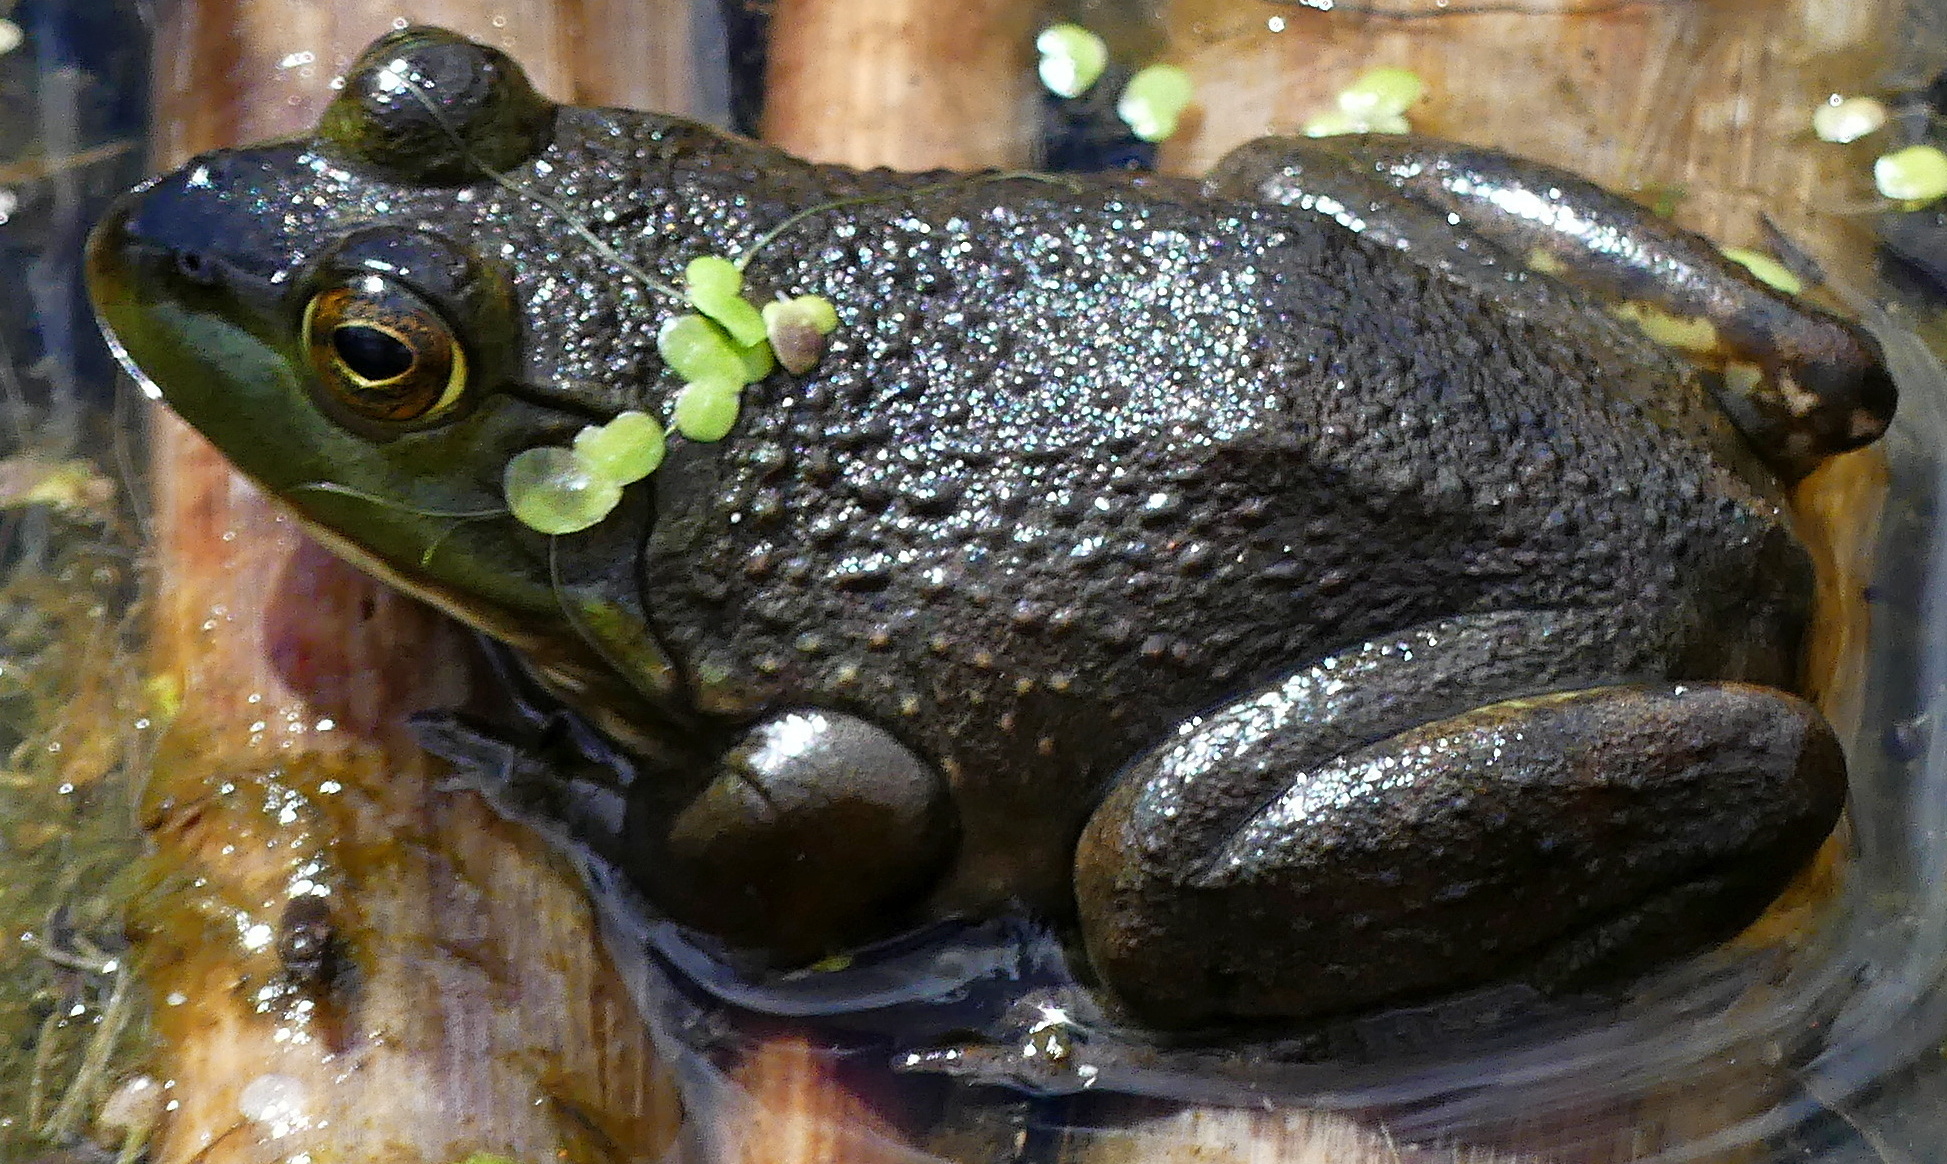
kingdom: Animalia
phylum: Chordata
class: Amphibia
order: Anura
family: Ranidae
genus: Lithobates
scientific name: Lithobates catesbeianus
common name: American bullfrog
